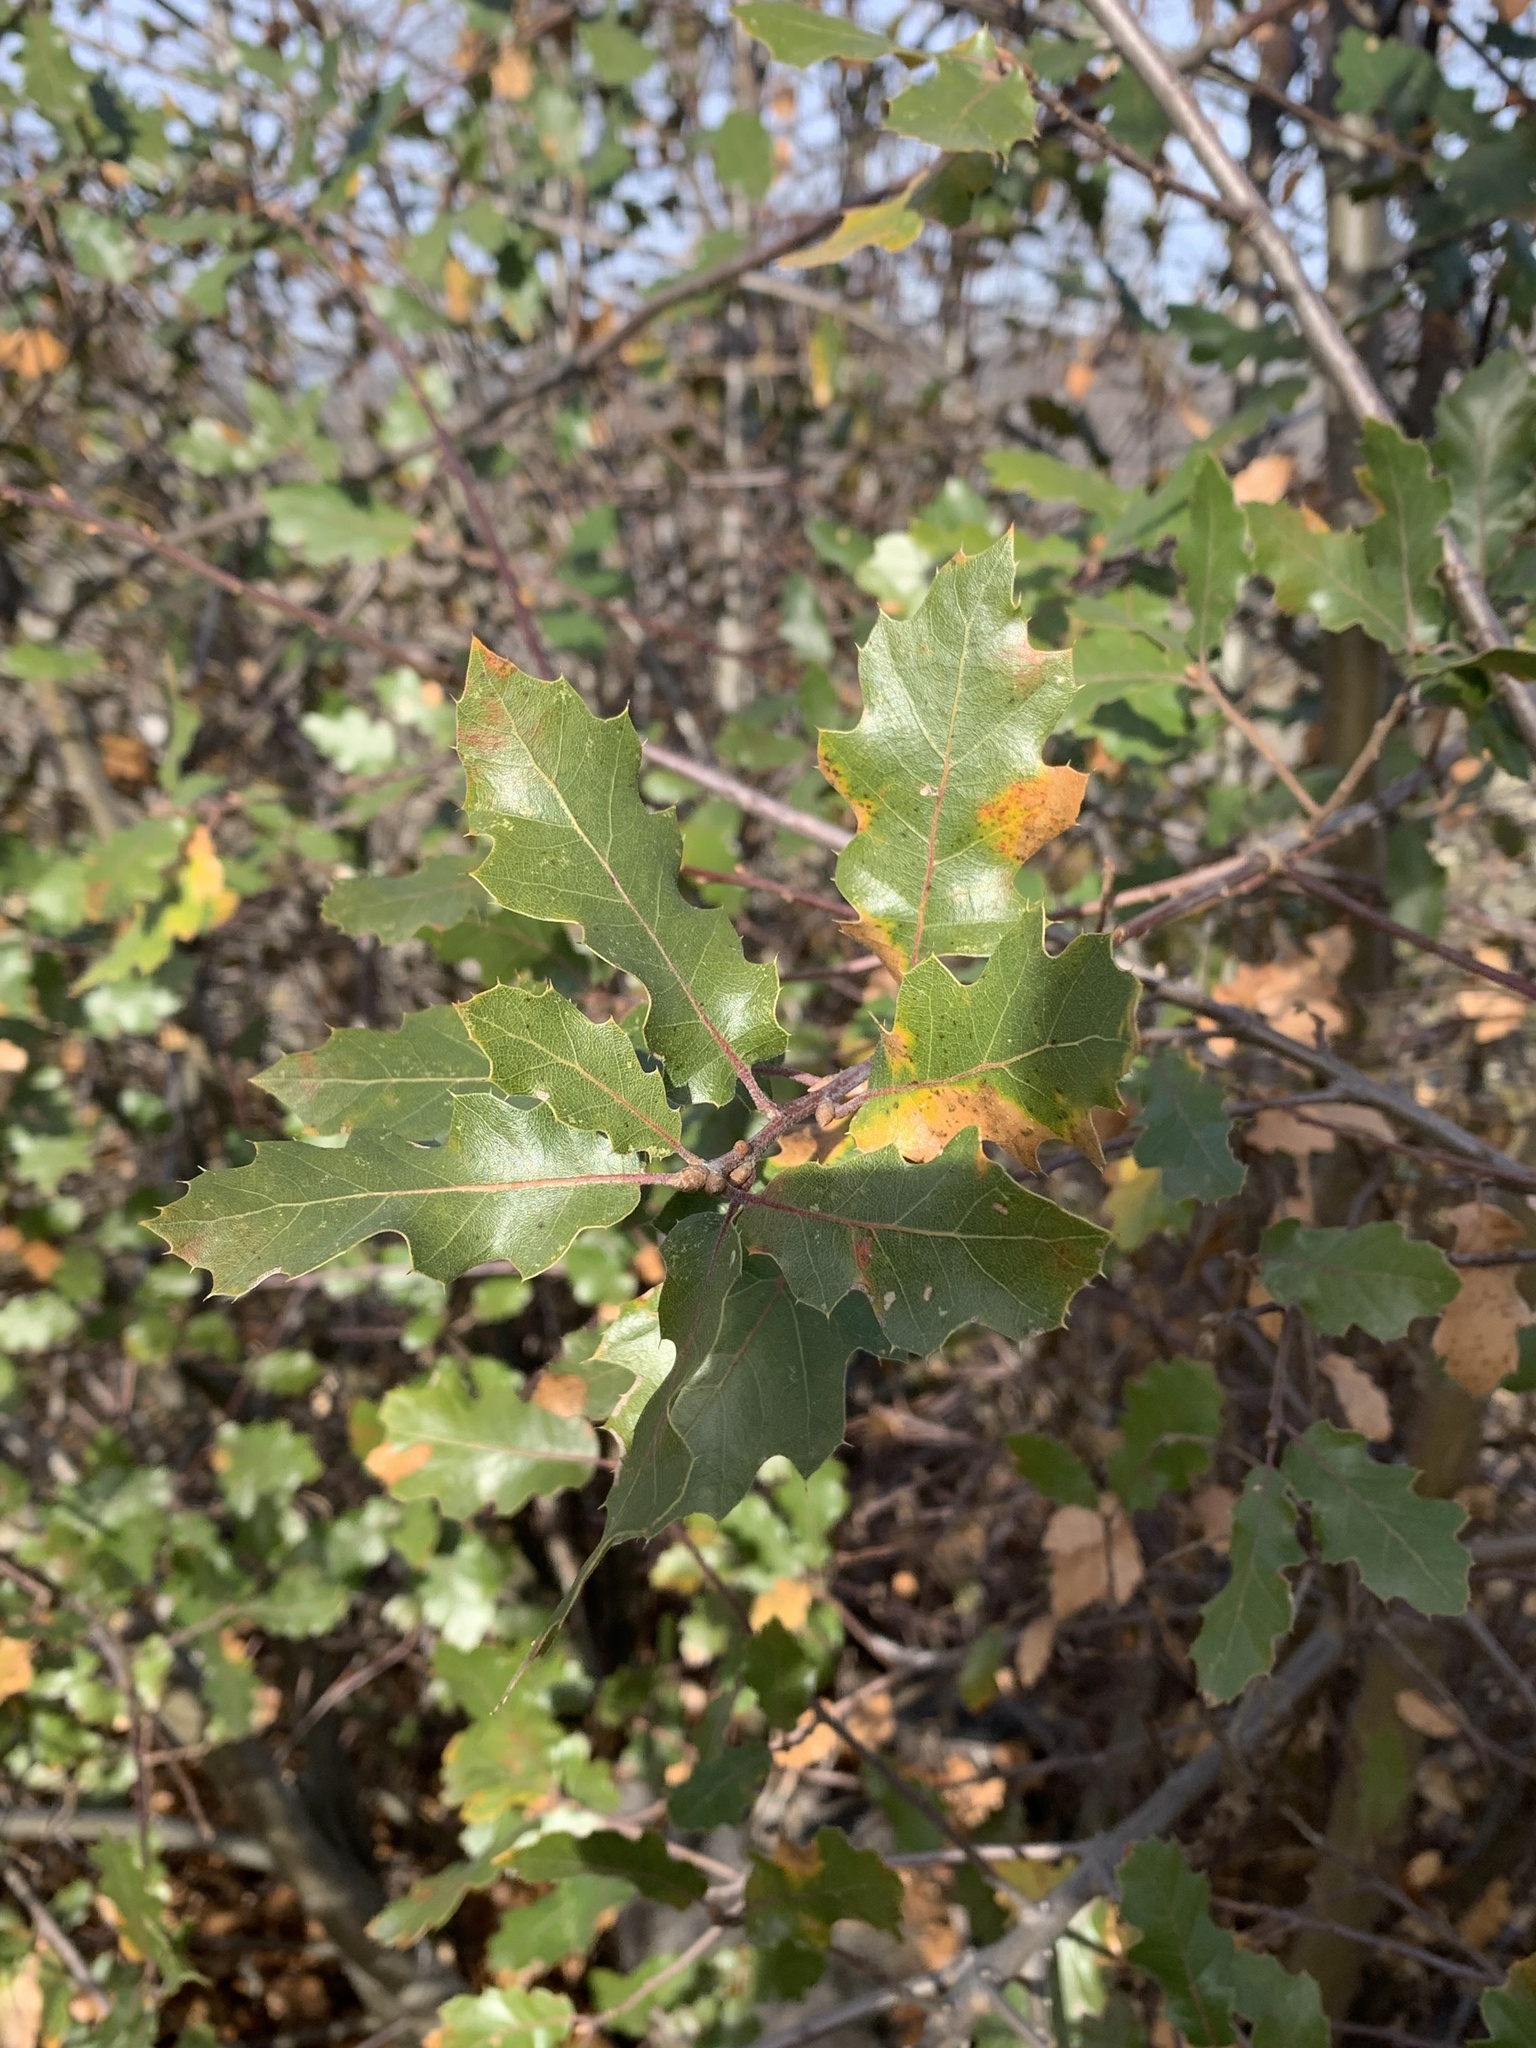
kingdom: Plantae
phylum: Tracheophyta
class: Magnoliopsida
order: Fagales
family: Fagaceae
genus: Quercus
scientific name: Quercus morehus
